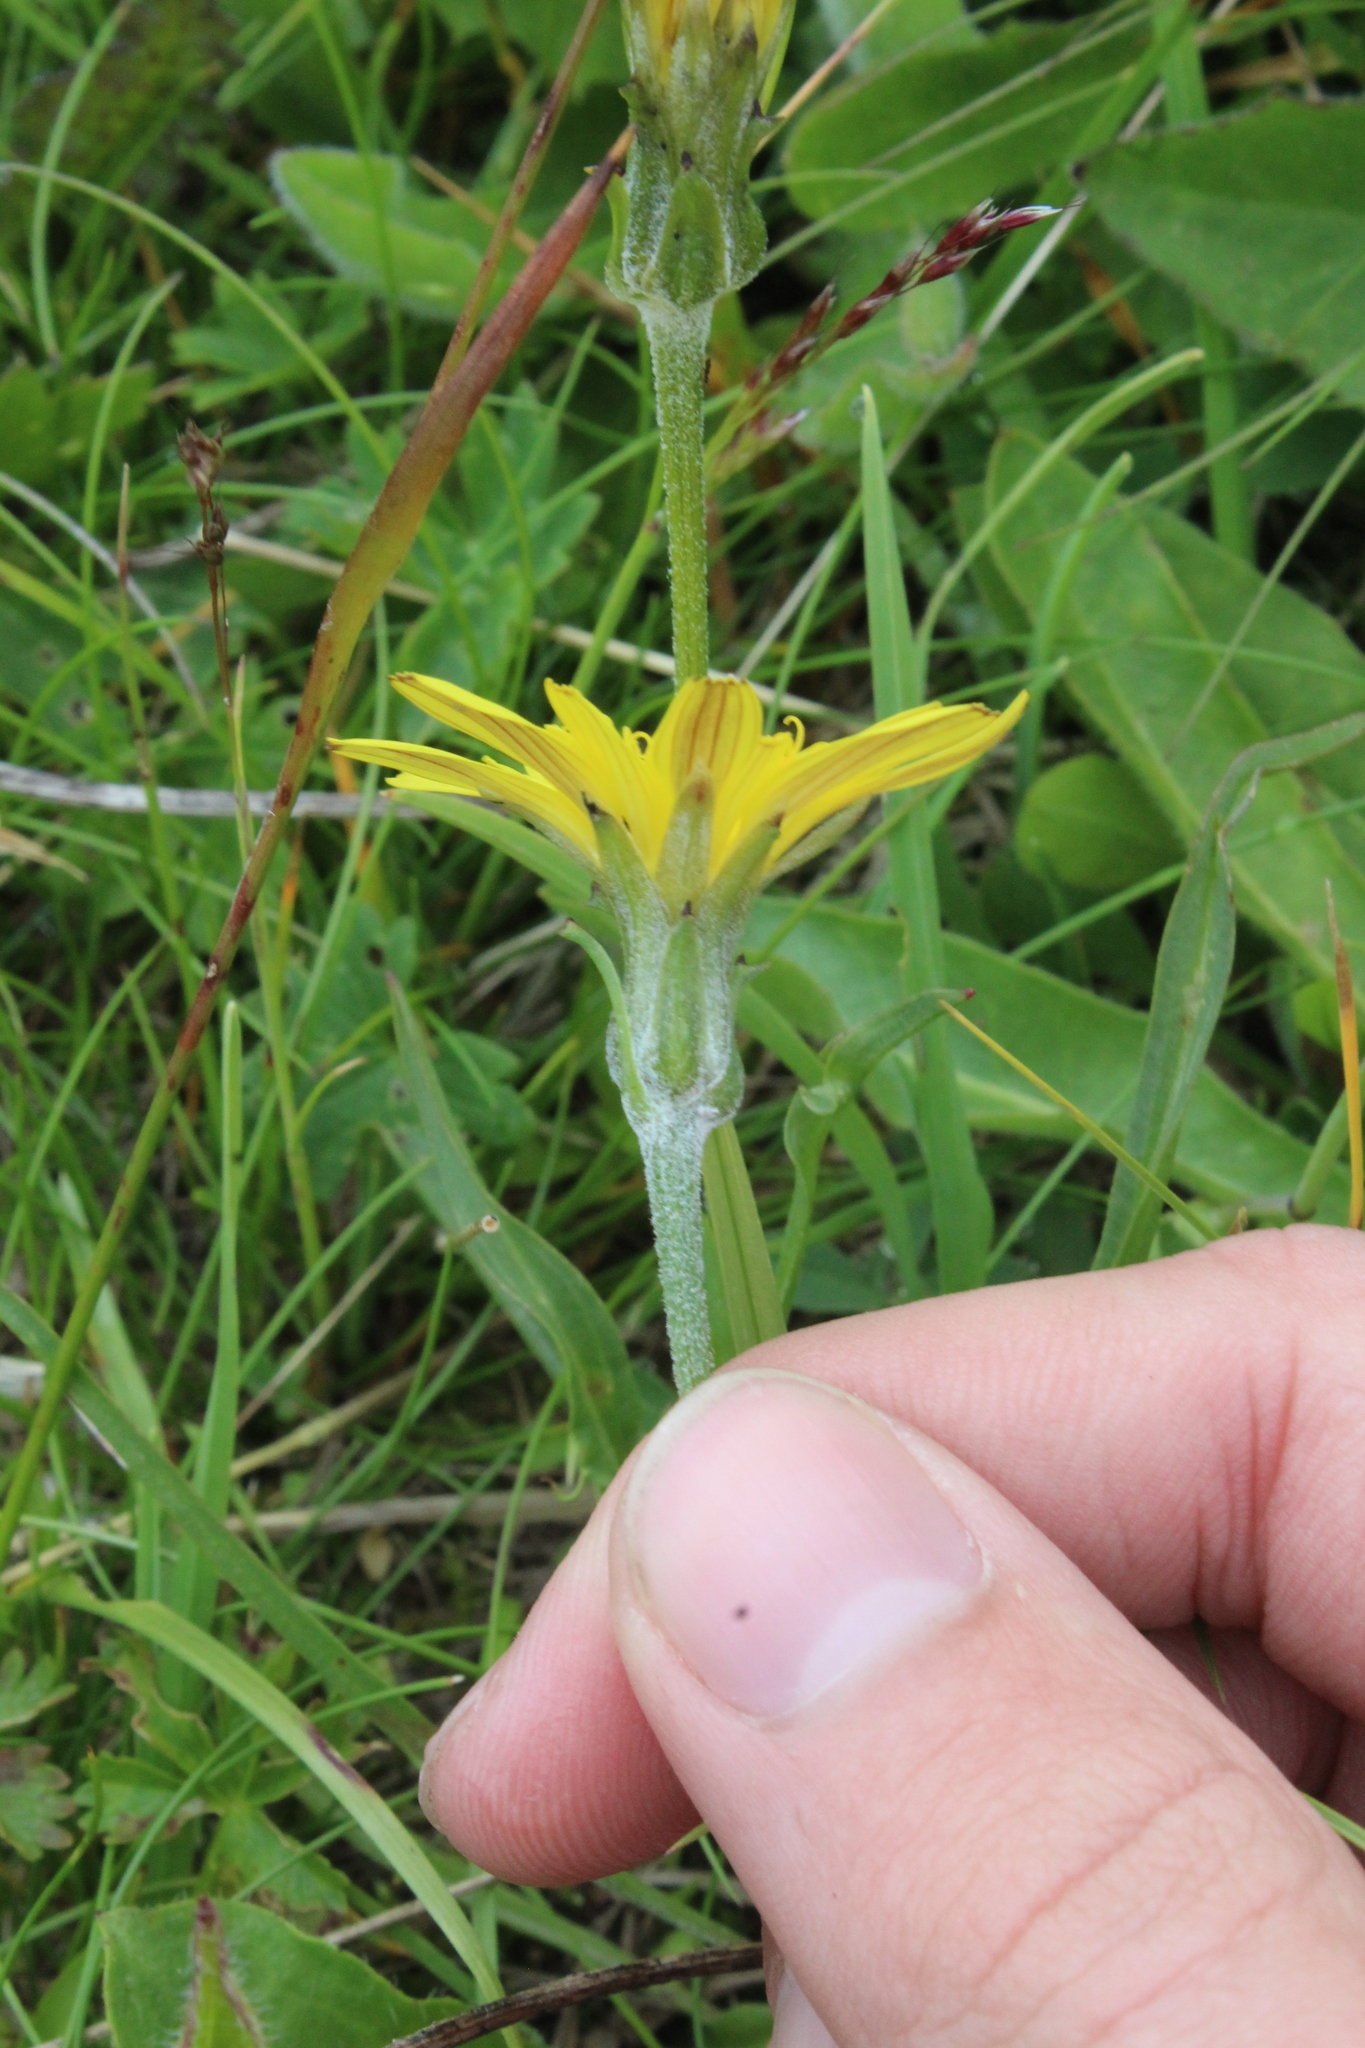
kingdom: Plantae
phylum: Tracheophyta
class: Magnoliopsida
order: Asterales
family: Asteraceae
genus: Scorzonera
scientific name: Scorzonera meyeri
